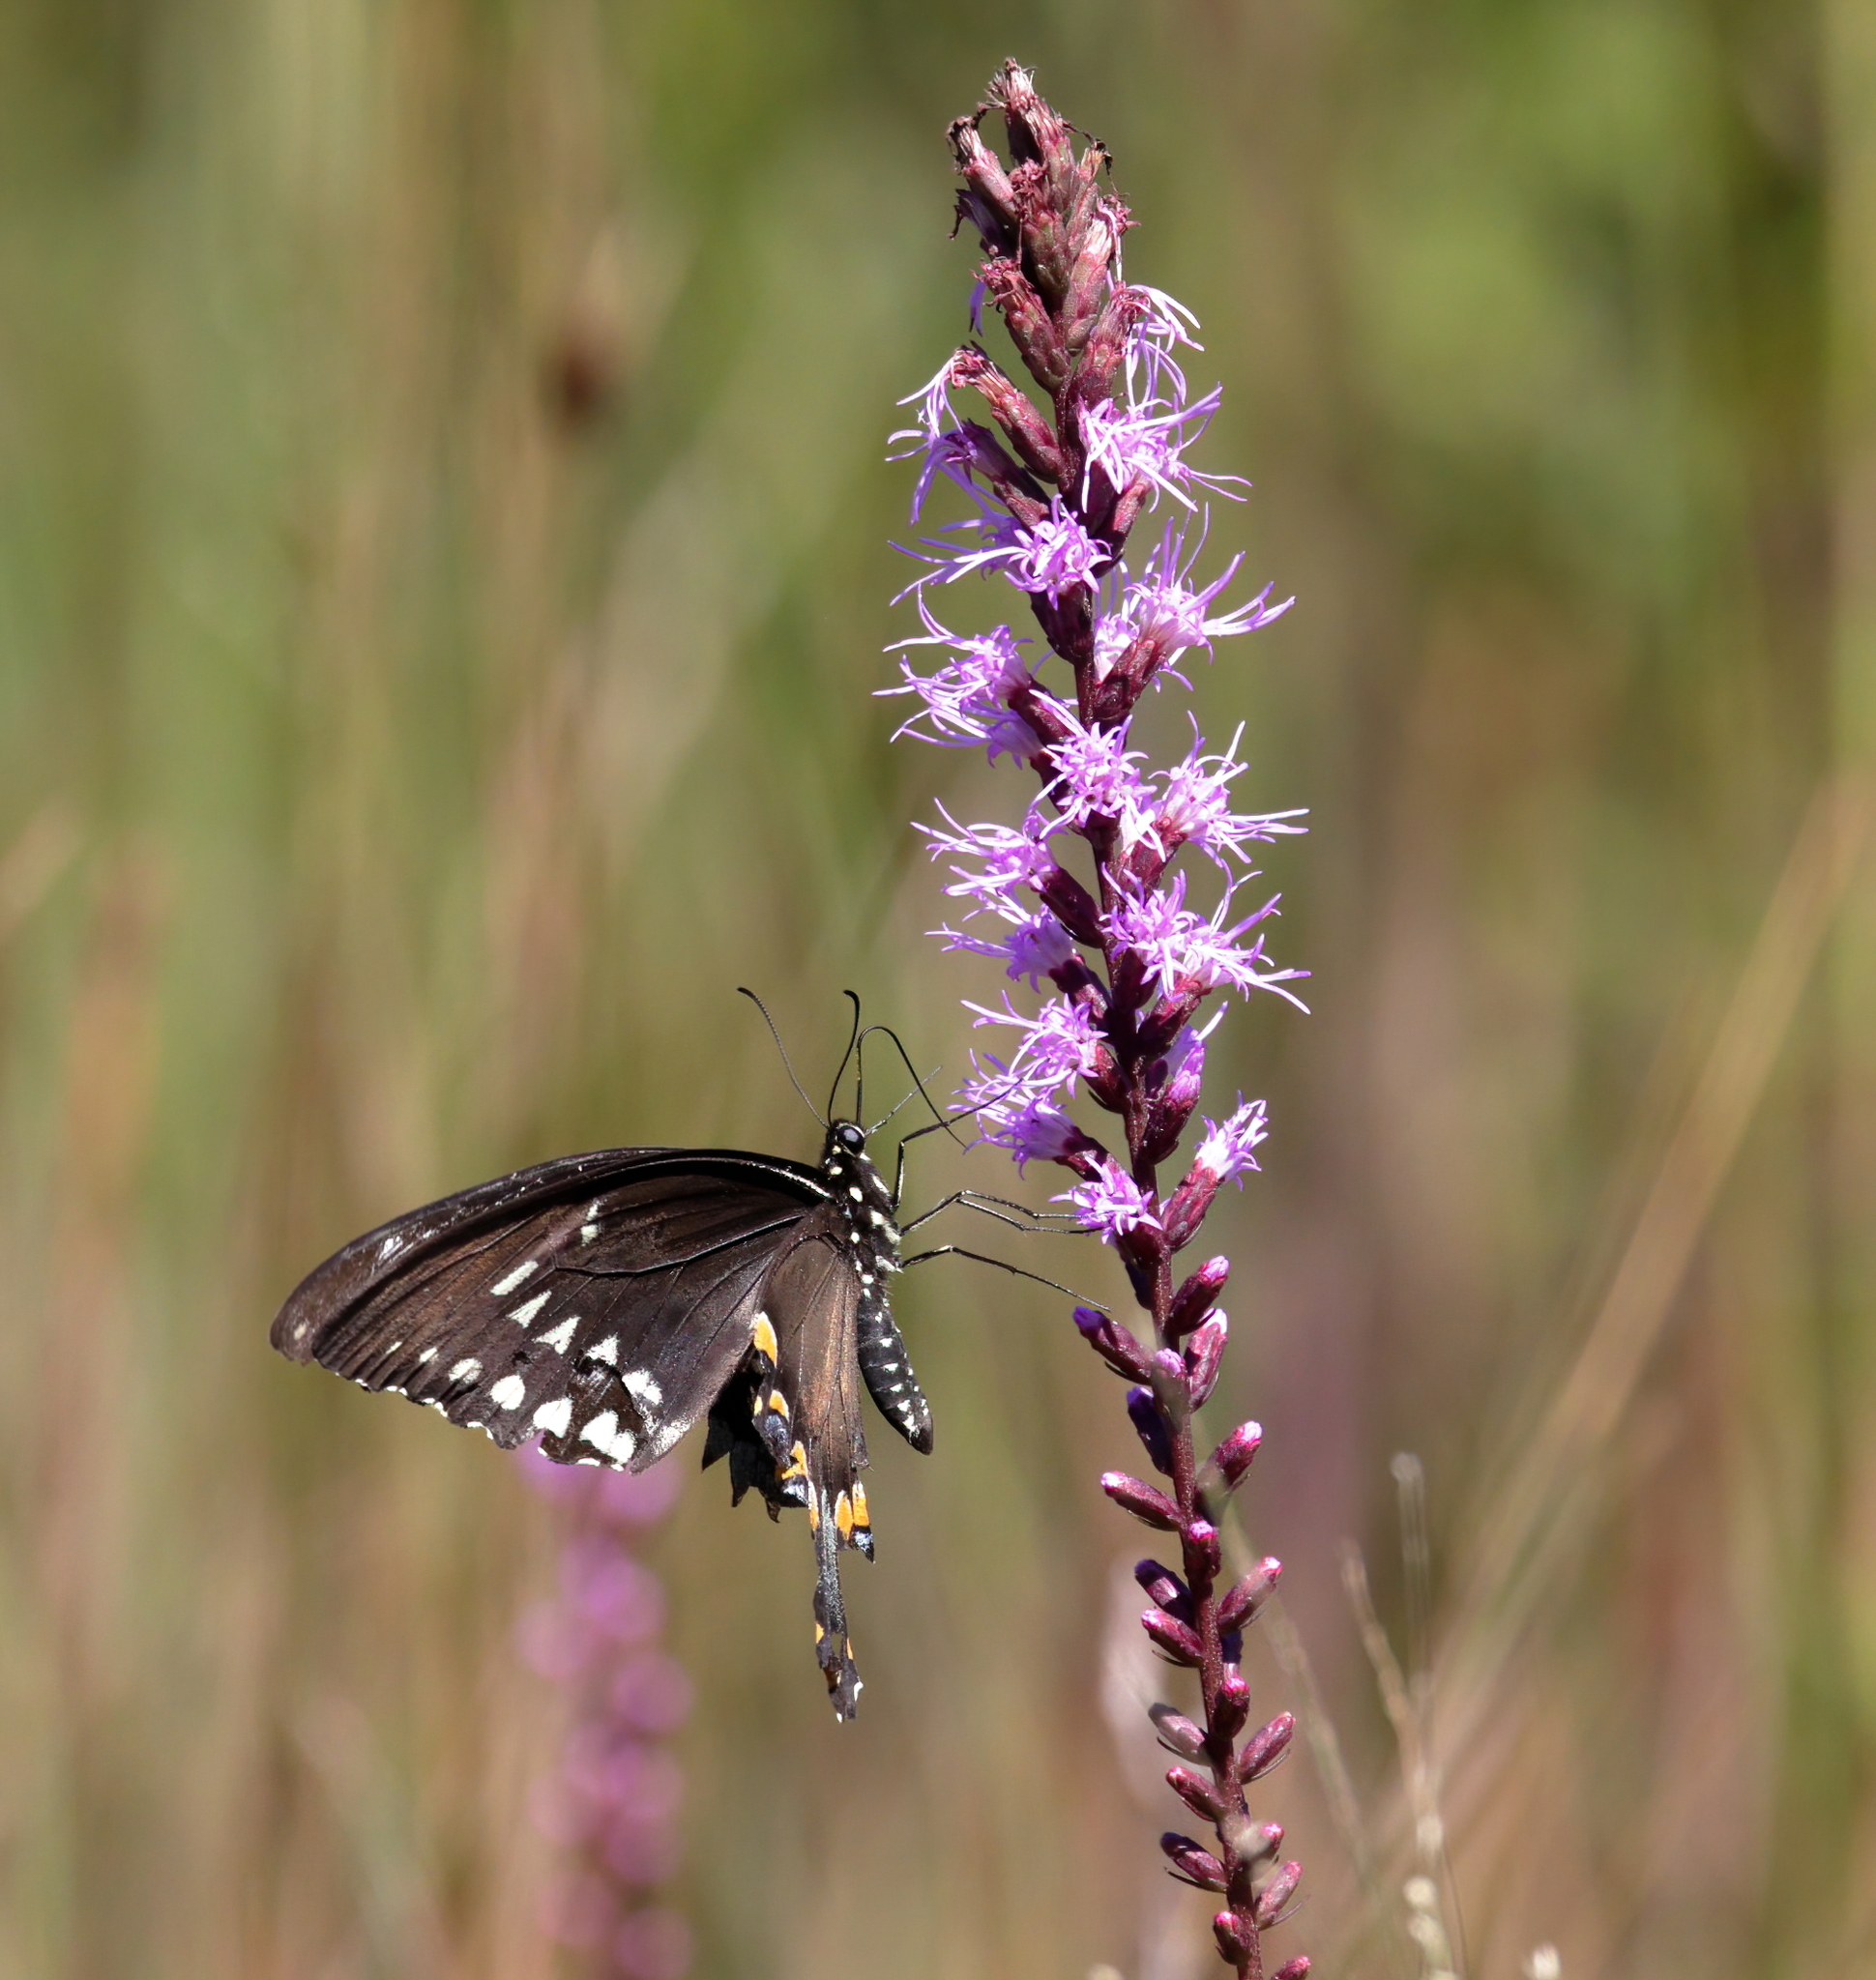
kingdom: Animalia
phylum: Arthropoda
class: Insecta
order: Lepidoptera
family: Papilionidae
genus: Papilio
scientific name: Papilio troilus
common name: Spicebush swallowtail
